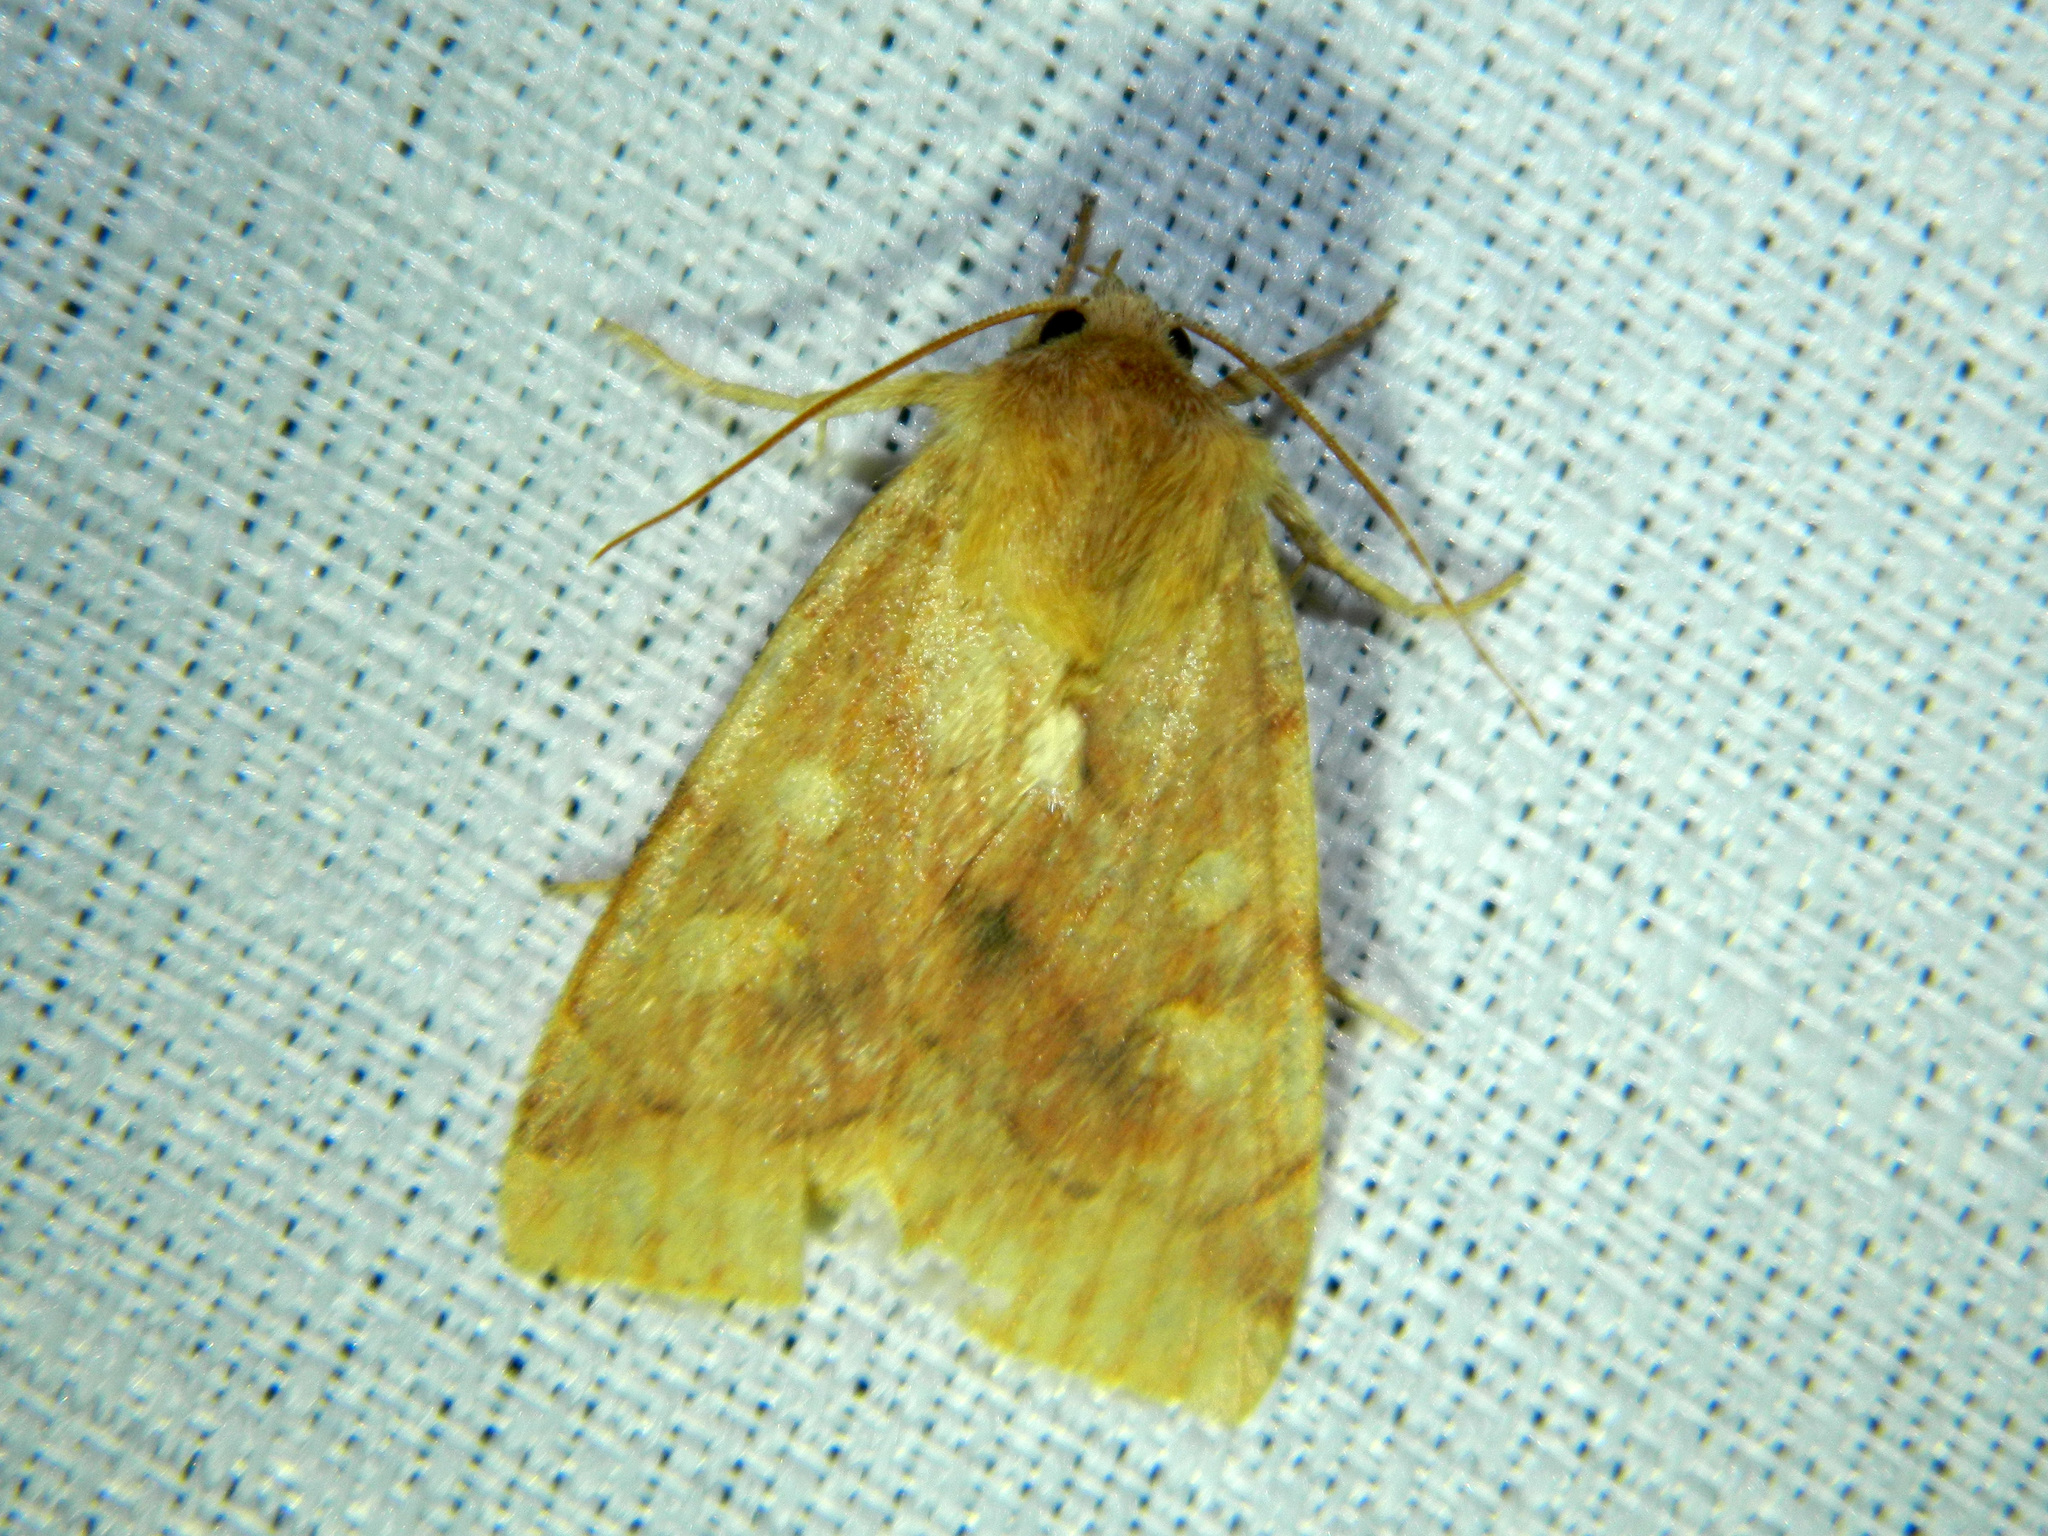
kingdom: Animalia
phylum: Arthropoda
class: Insecta
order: Lepidoptera
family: Noctuidae
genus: Enargia
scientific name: Enargia decolor
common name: Aspen twoleaf tier moth
